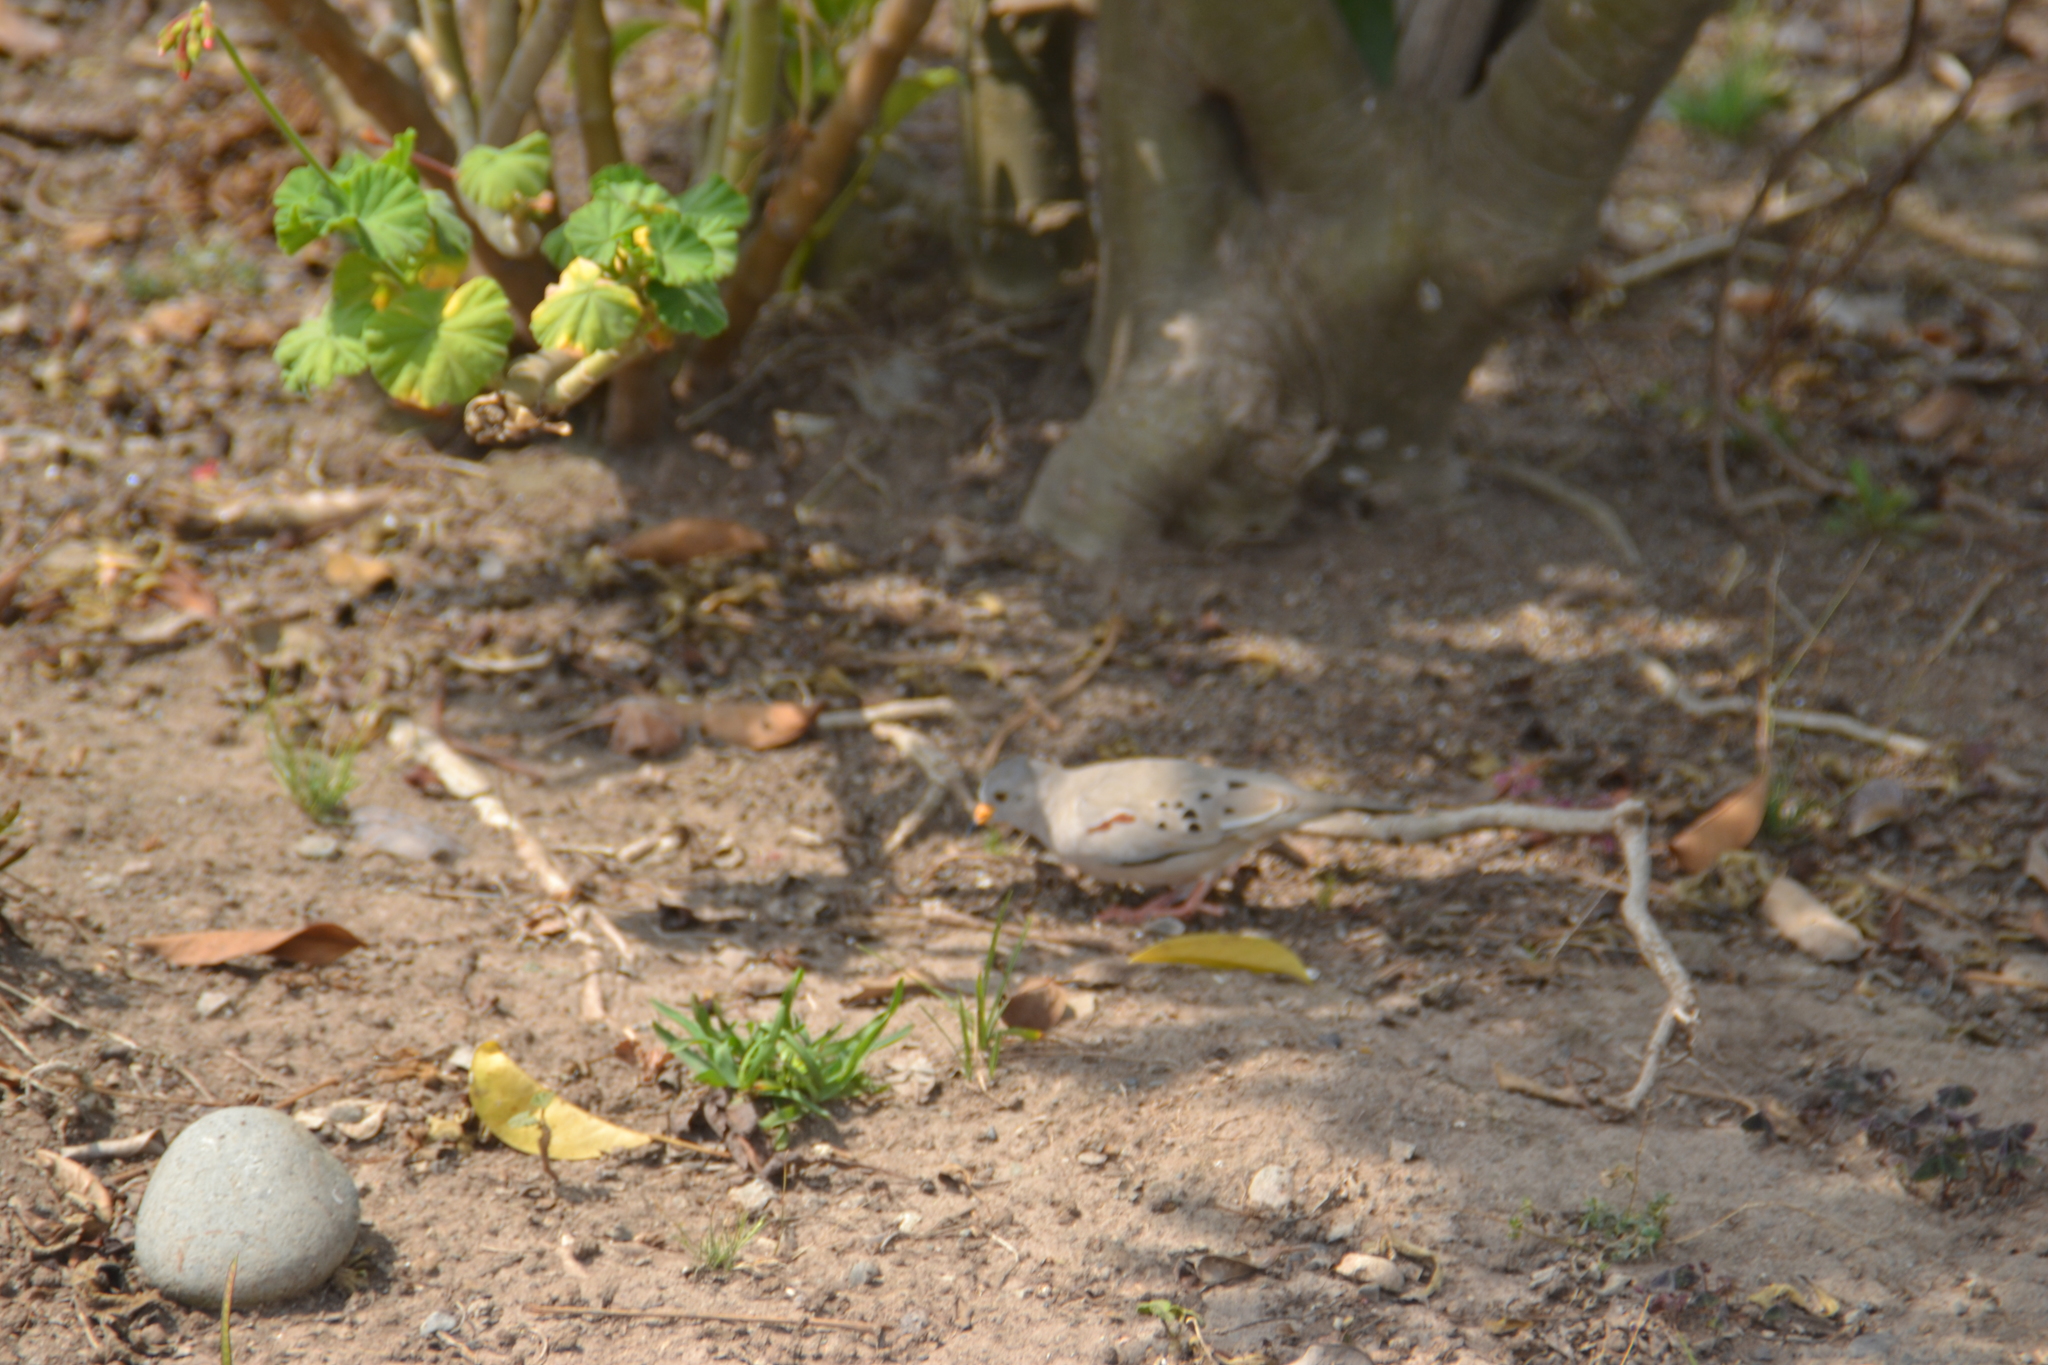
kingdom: Animalia
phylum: Chordata
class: Aves
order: Columbiformes
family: Columbidae
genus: Columbina
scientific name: Columbina cruziana
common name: Croaking ground dove
